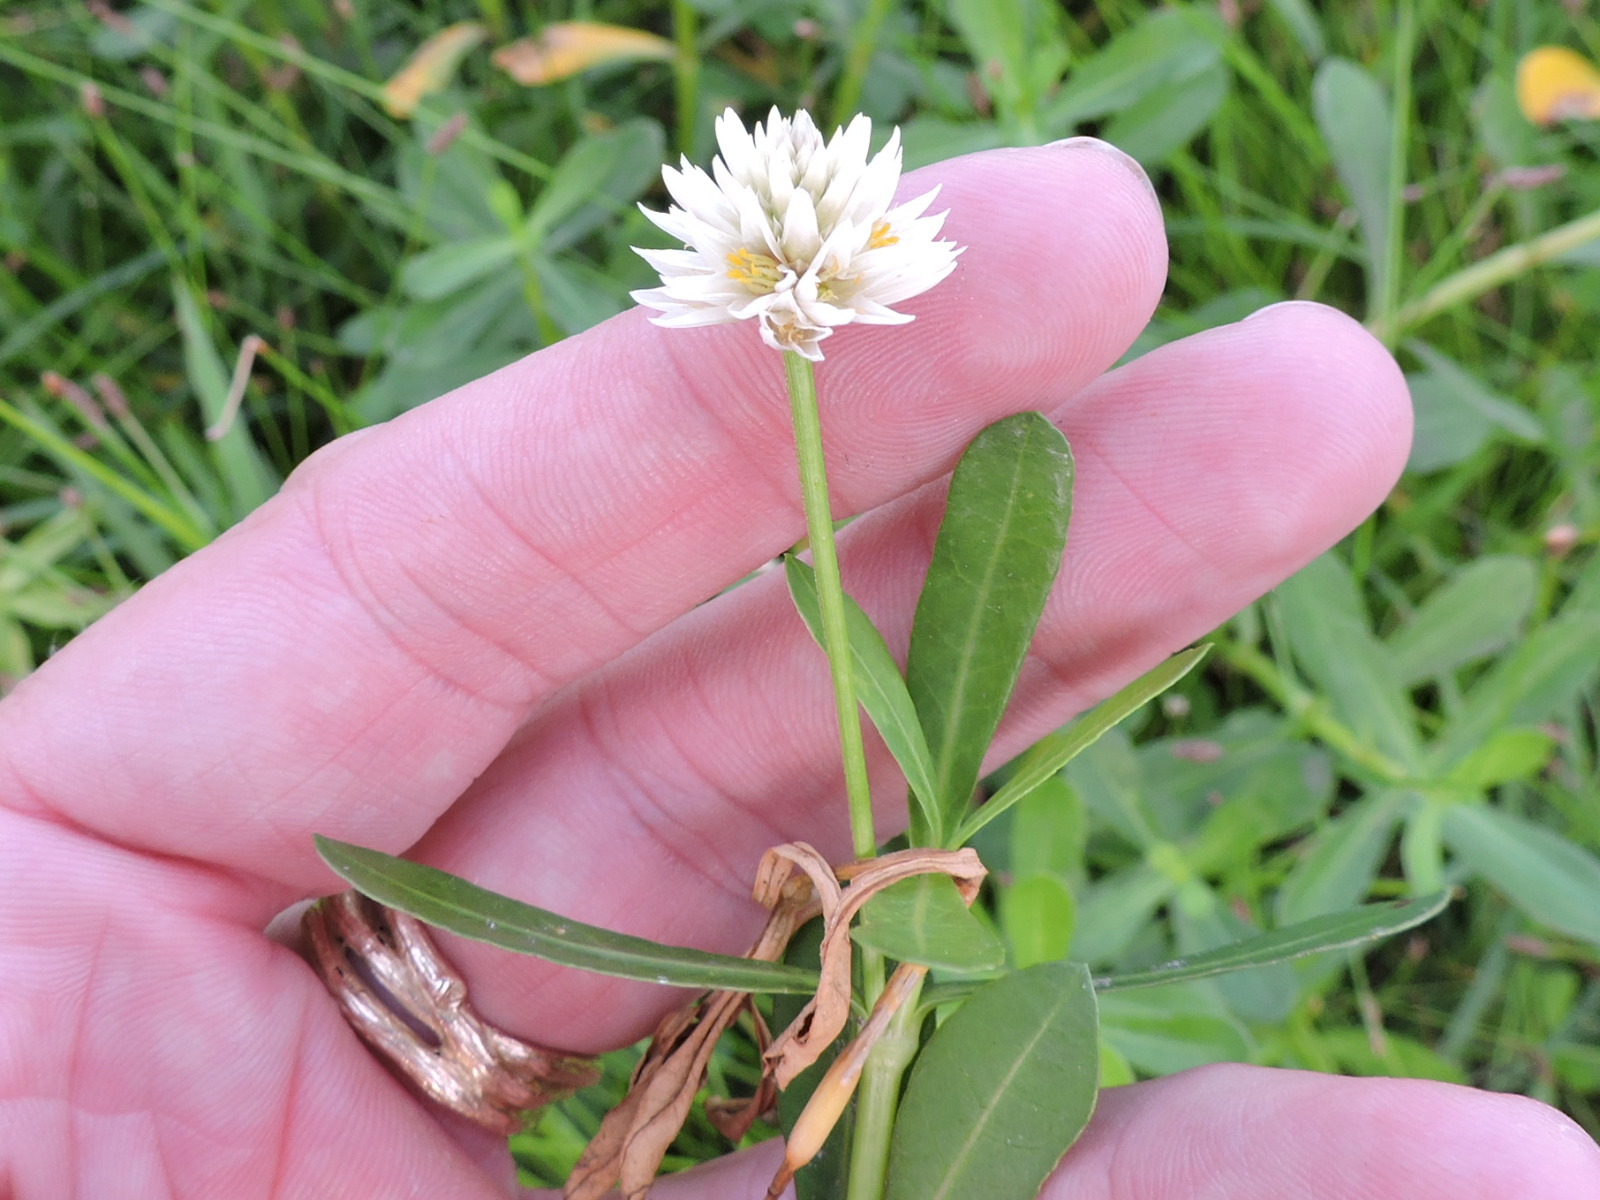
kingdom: Plantae
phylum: Tracheophyta
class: Magnoliopsida
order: Caryophyllales
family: Amaranthaceae
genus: Alternanthera
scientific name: Alternanthera philoxeroides
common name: Alligatorweed
